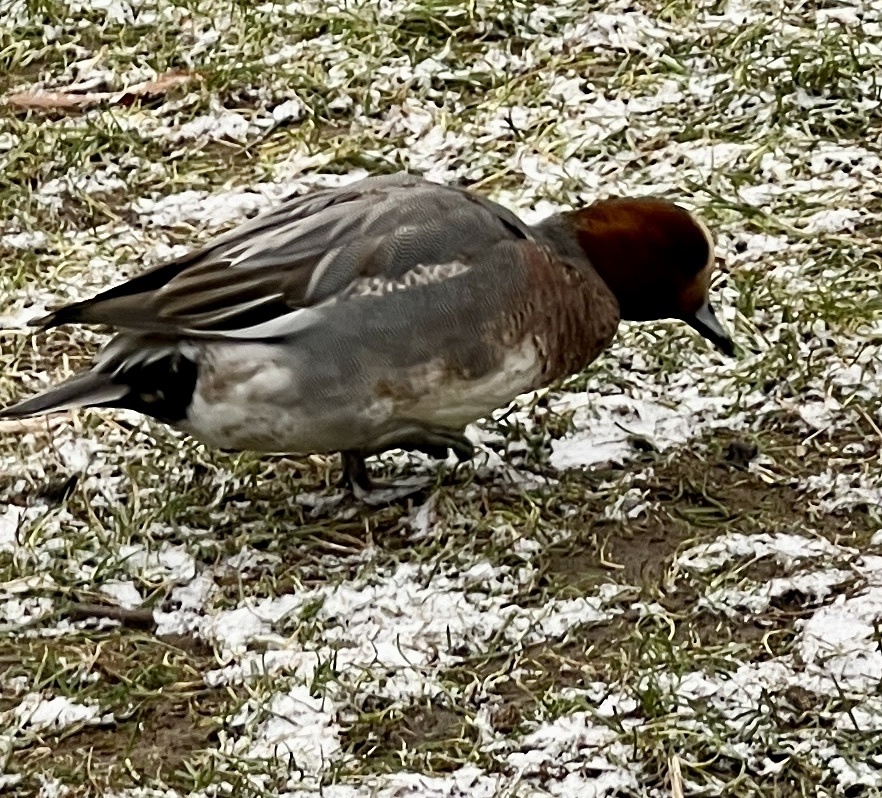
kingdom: Animalia
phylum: Chordata
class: Aves
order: Anseriformes
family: Anatidae
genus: Mareca
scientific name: Mareca penelope
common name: Eurasian wigeon
